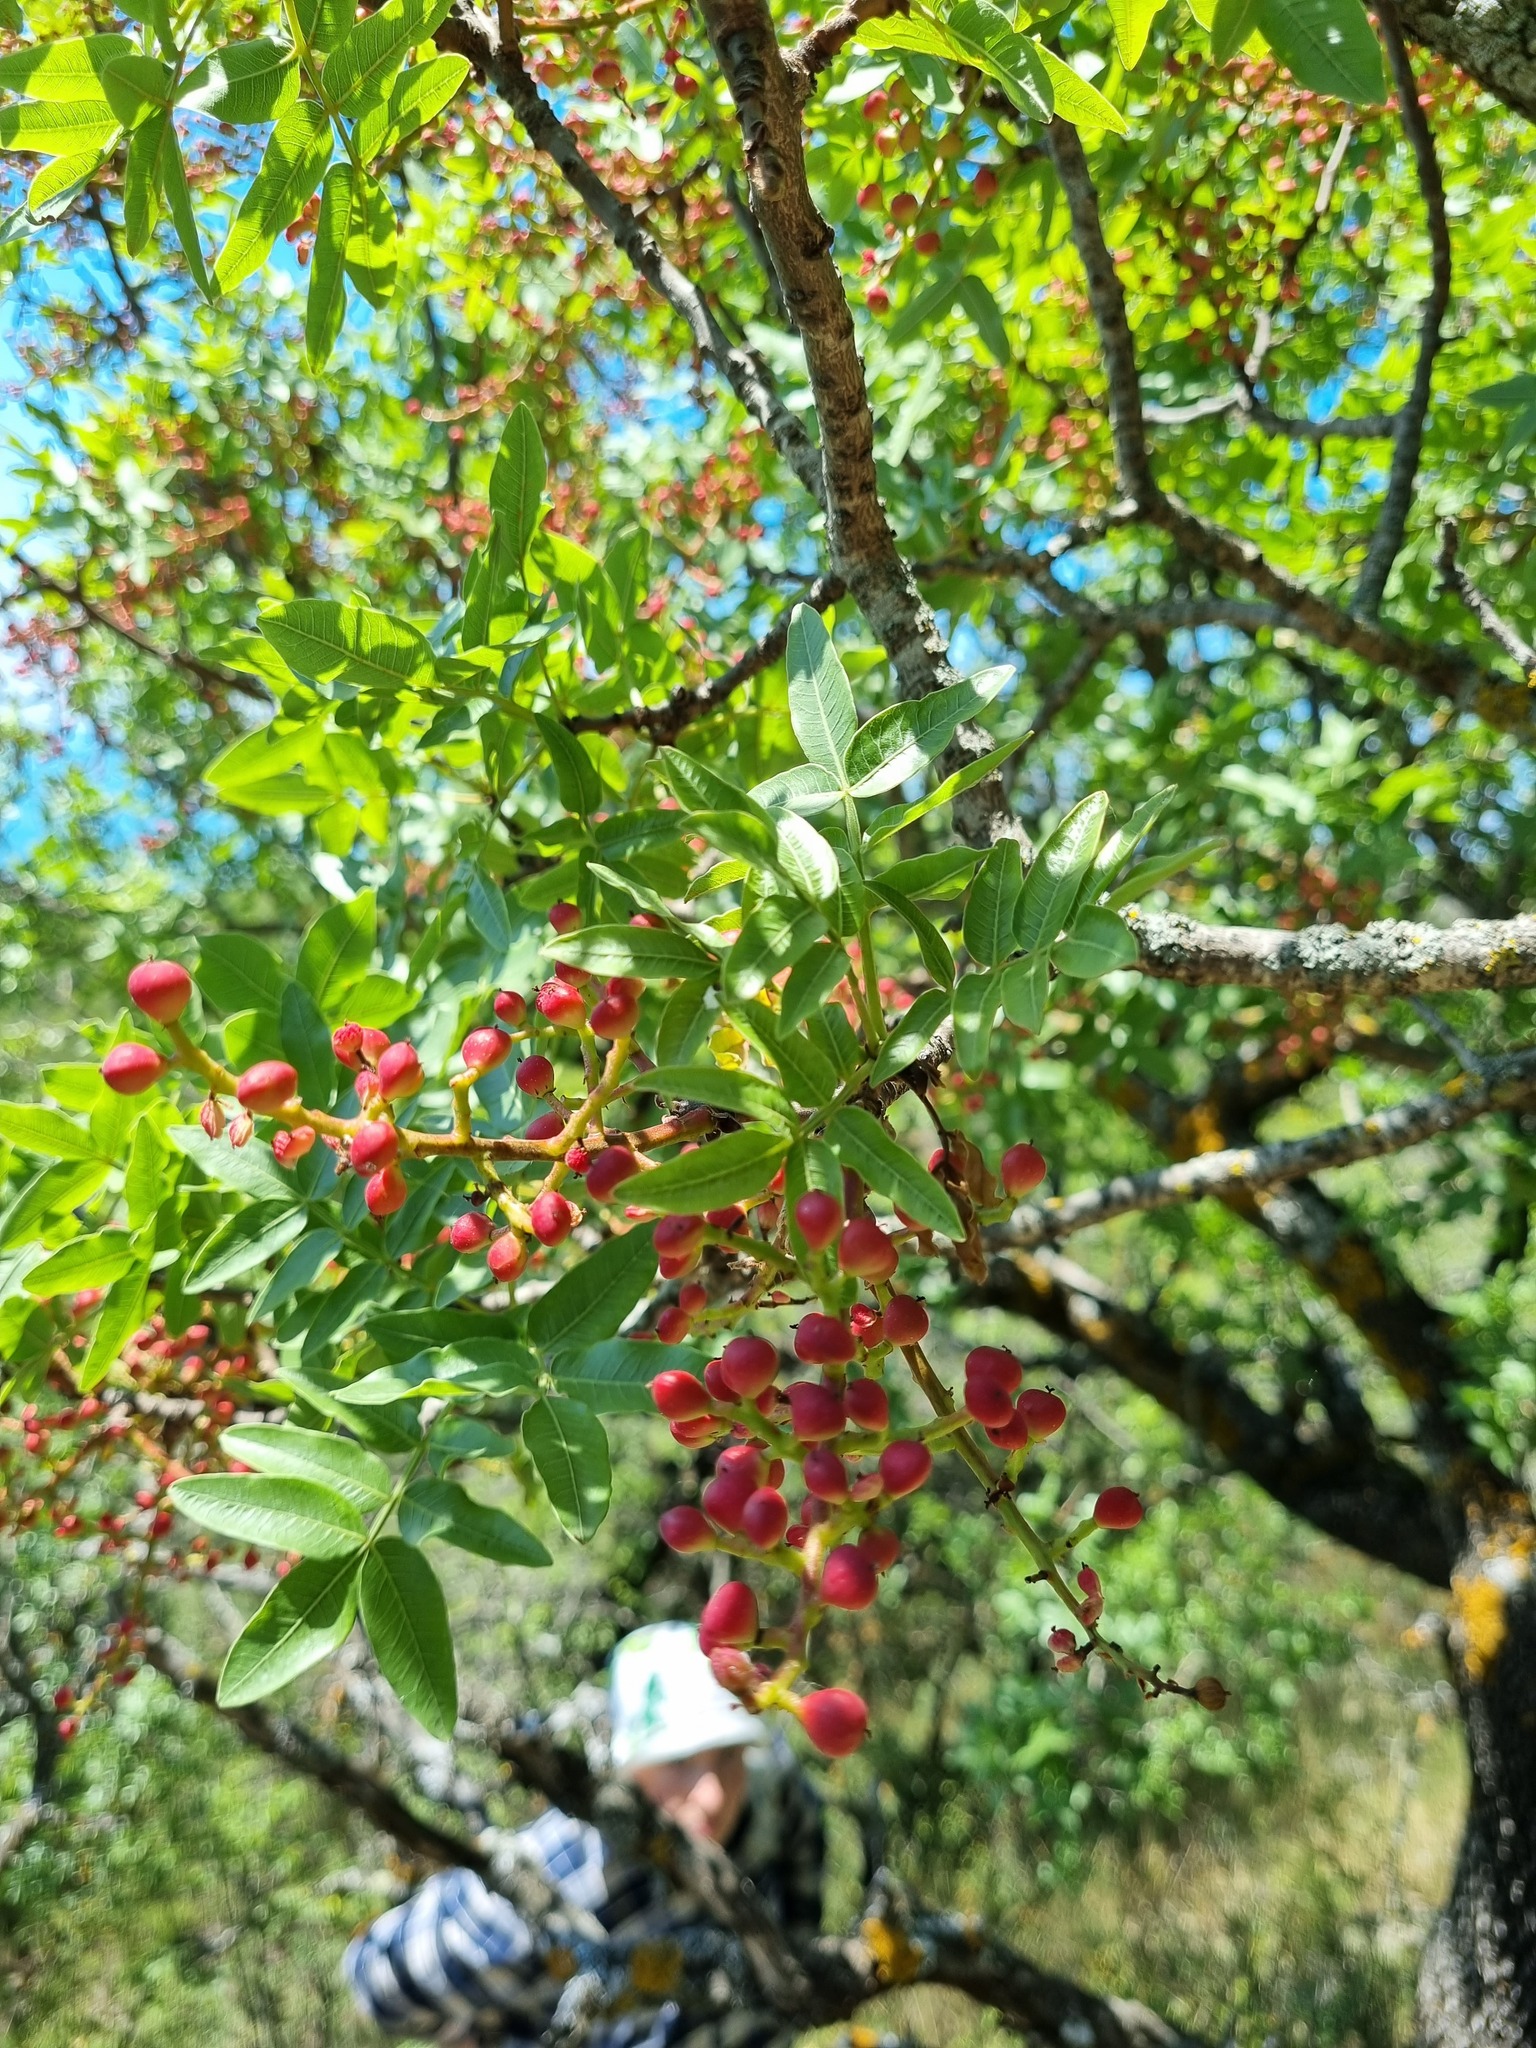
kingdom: Plantae
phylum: Tracheophyta
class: Magnoliopsida
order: Sapindales
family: Anacardiaceae
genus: Pistacia
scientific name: Pistacia atlantica
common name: Mt. atlas mastic tree
